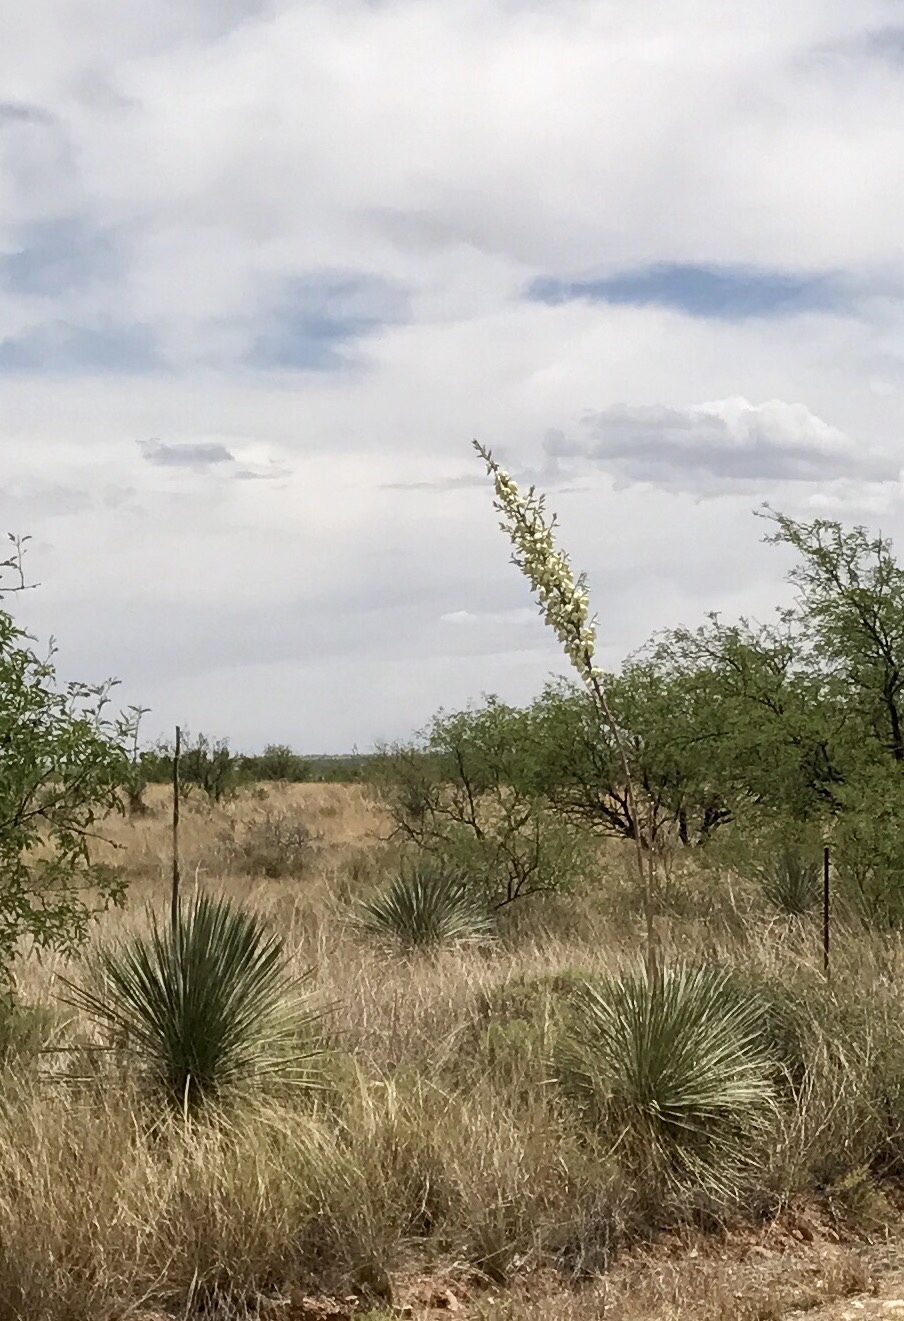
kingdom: Plantae
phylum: Tracheophyta
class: Liliopsida
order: Asparagales
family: Asparagaceae
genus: Dasylirion
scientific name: Dasylirion wheeleri
